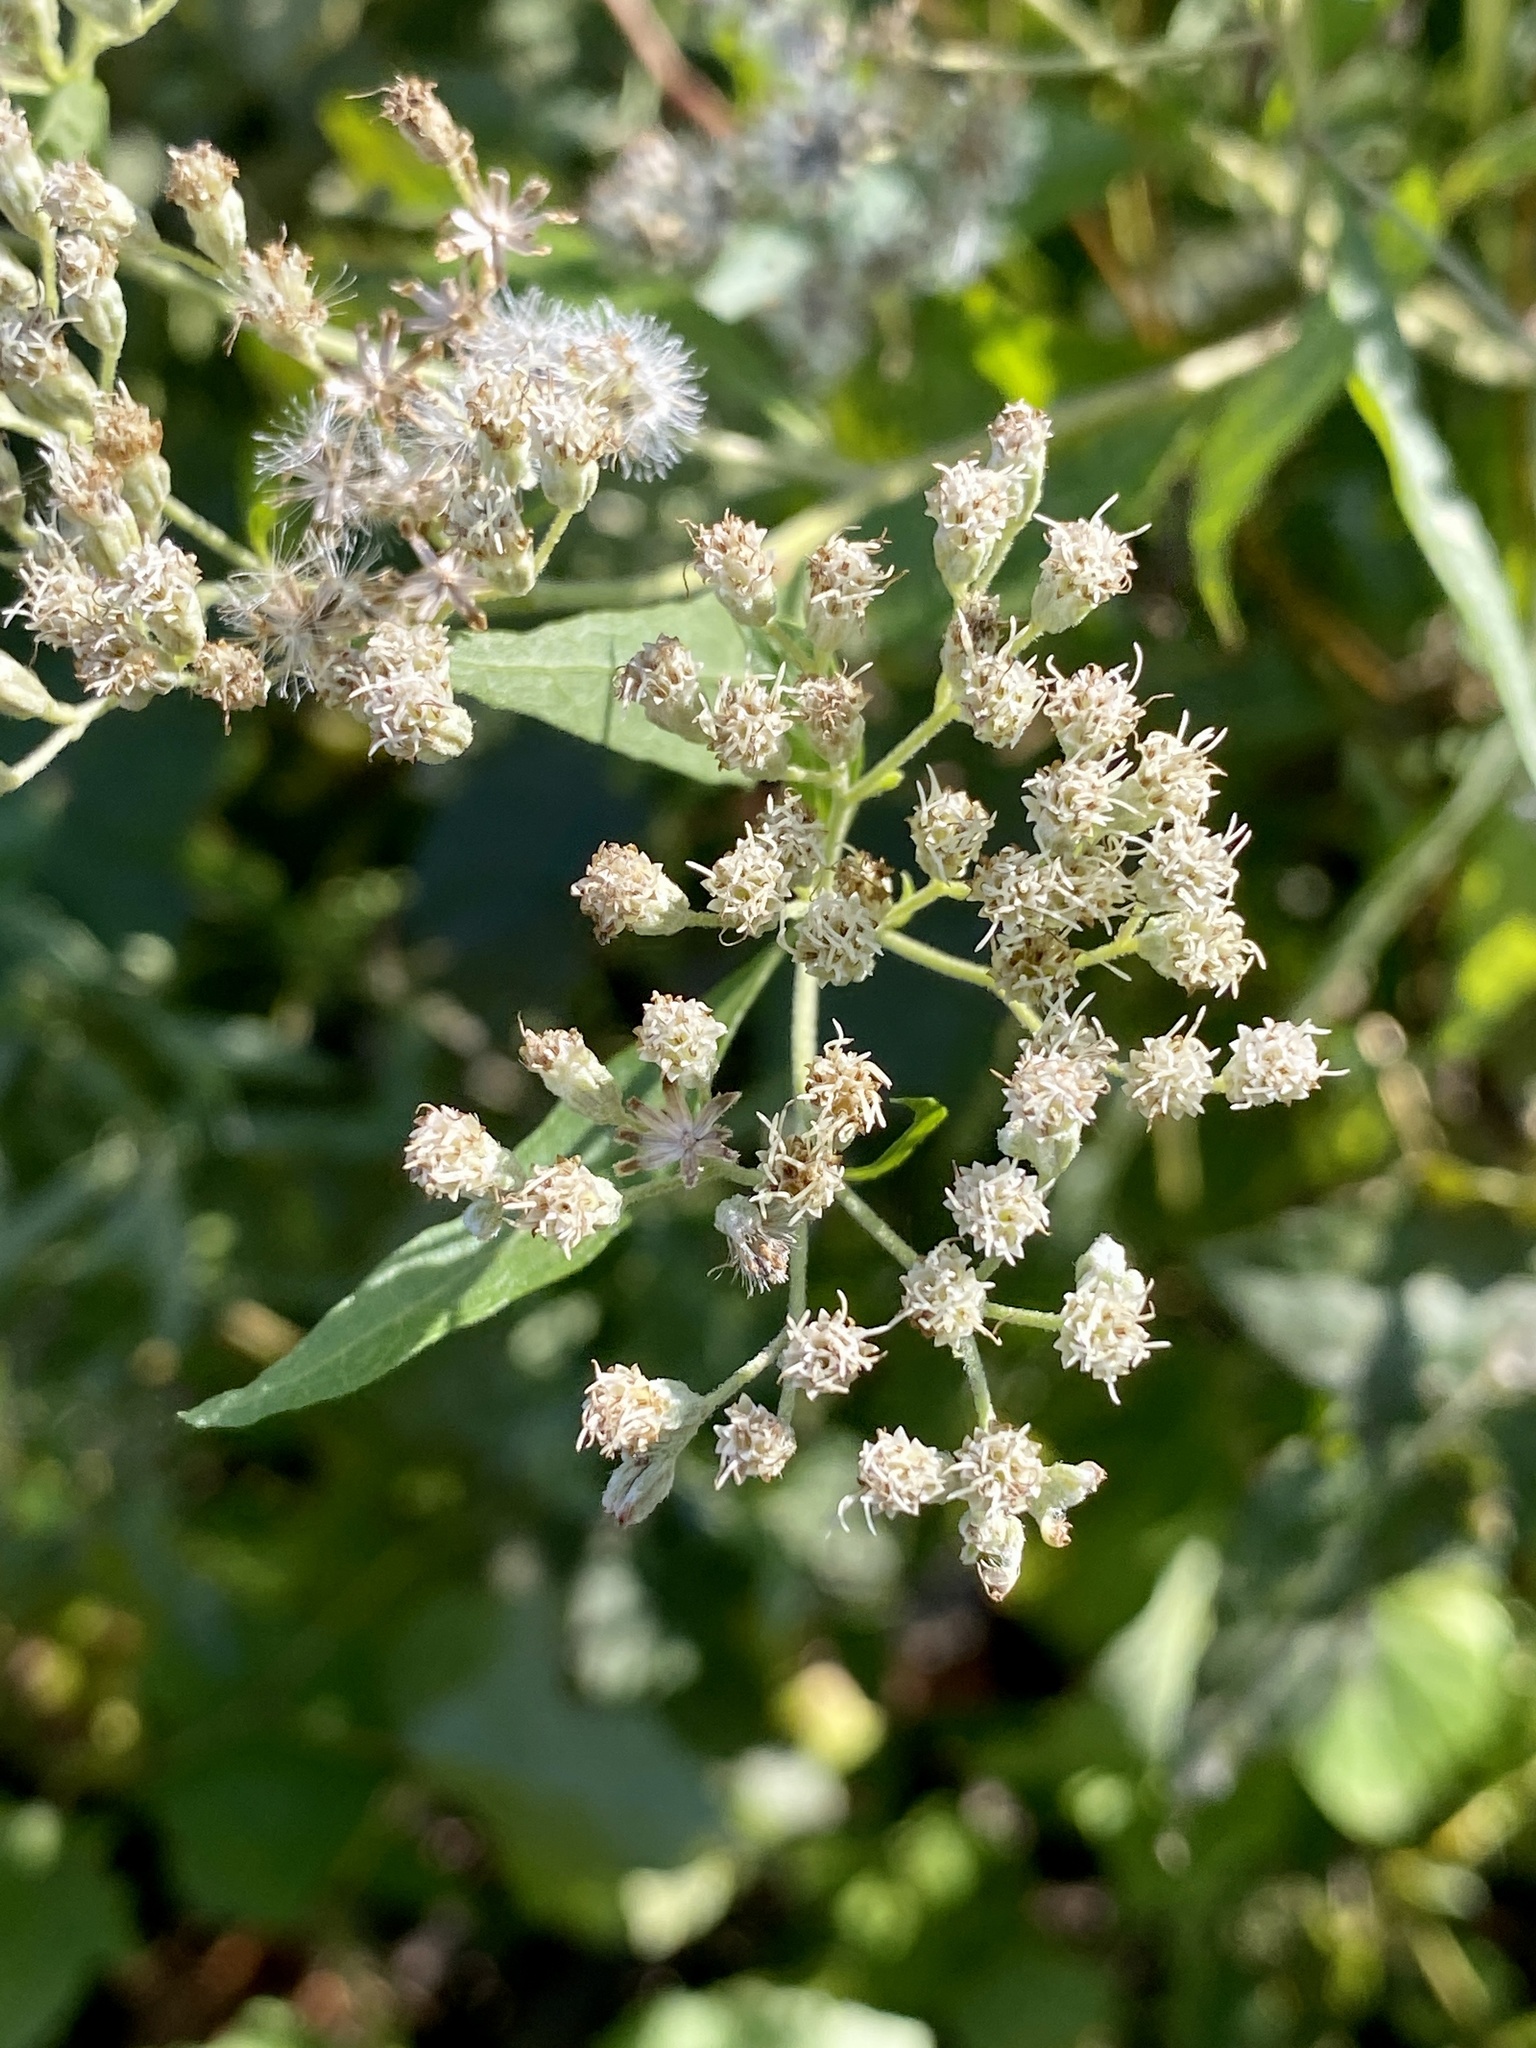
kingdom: Plantae
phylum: Tracheophyta
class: Magnoliopsida
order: Asterales
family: Asteraceae
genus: Baccharis
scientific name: Baccharis halimifolia
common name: Eastern baccharis
